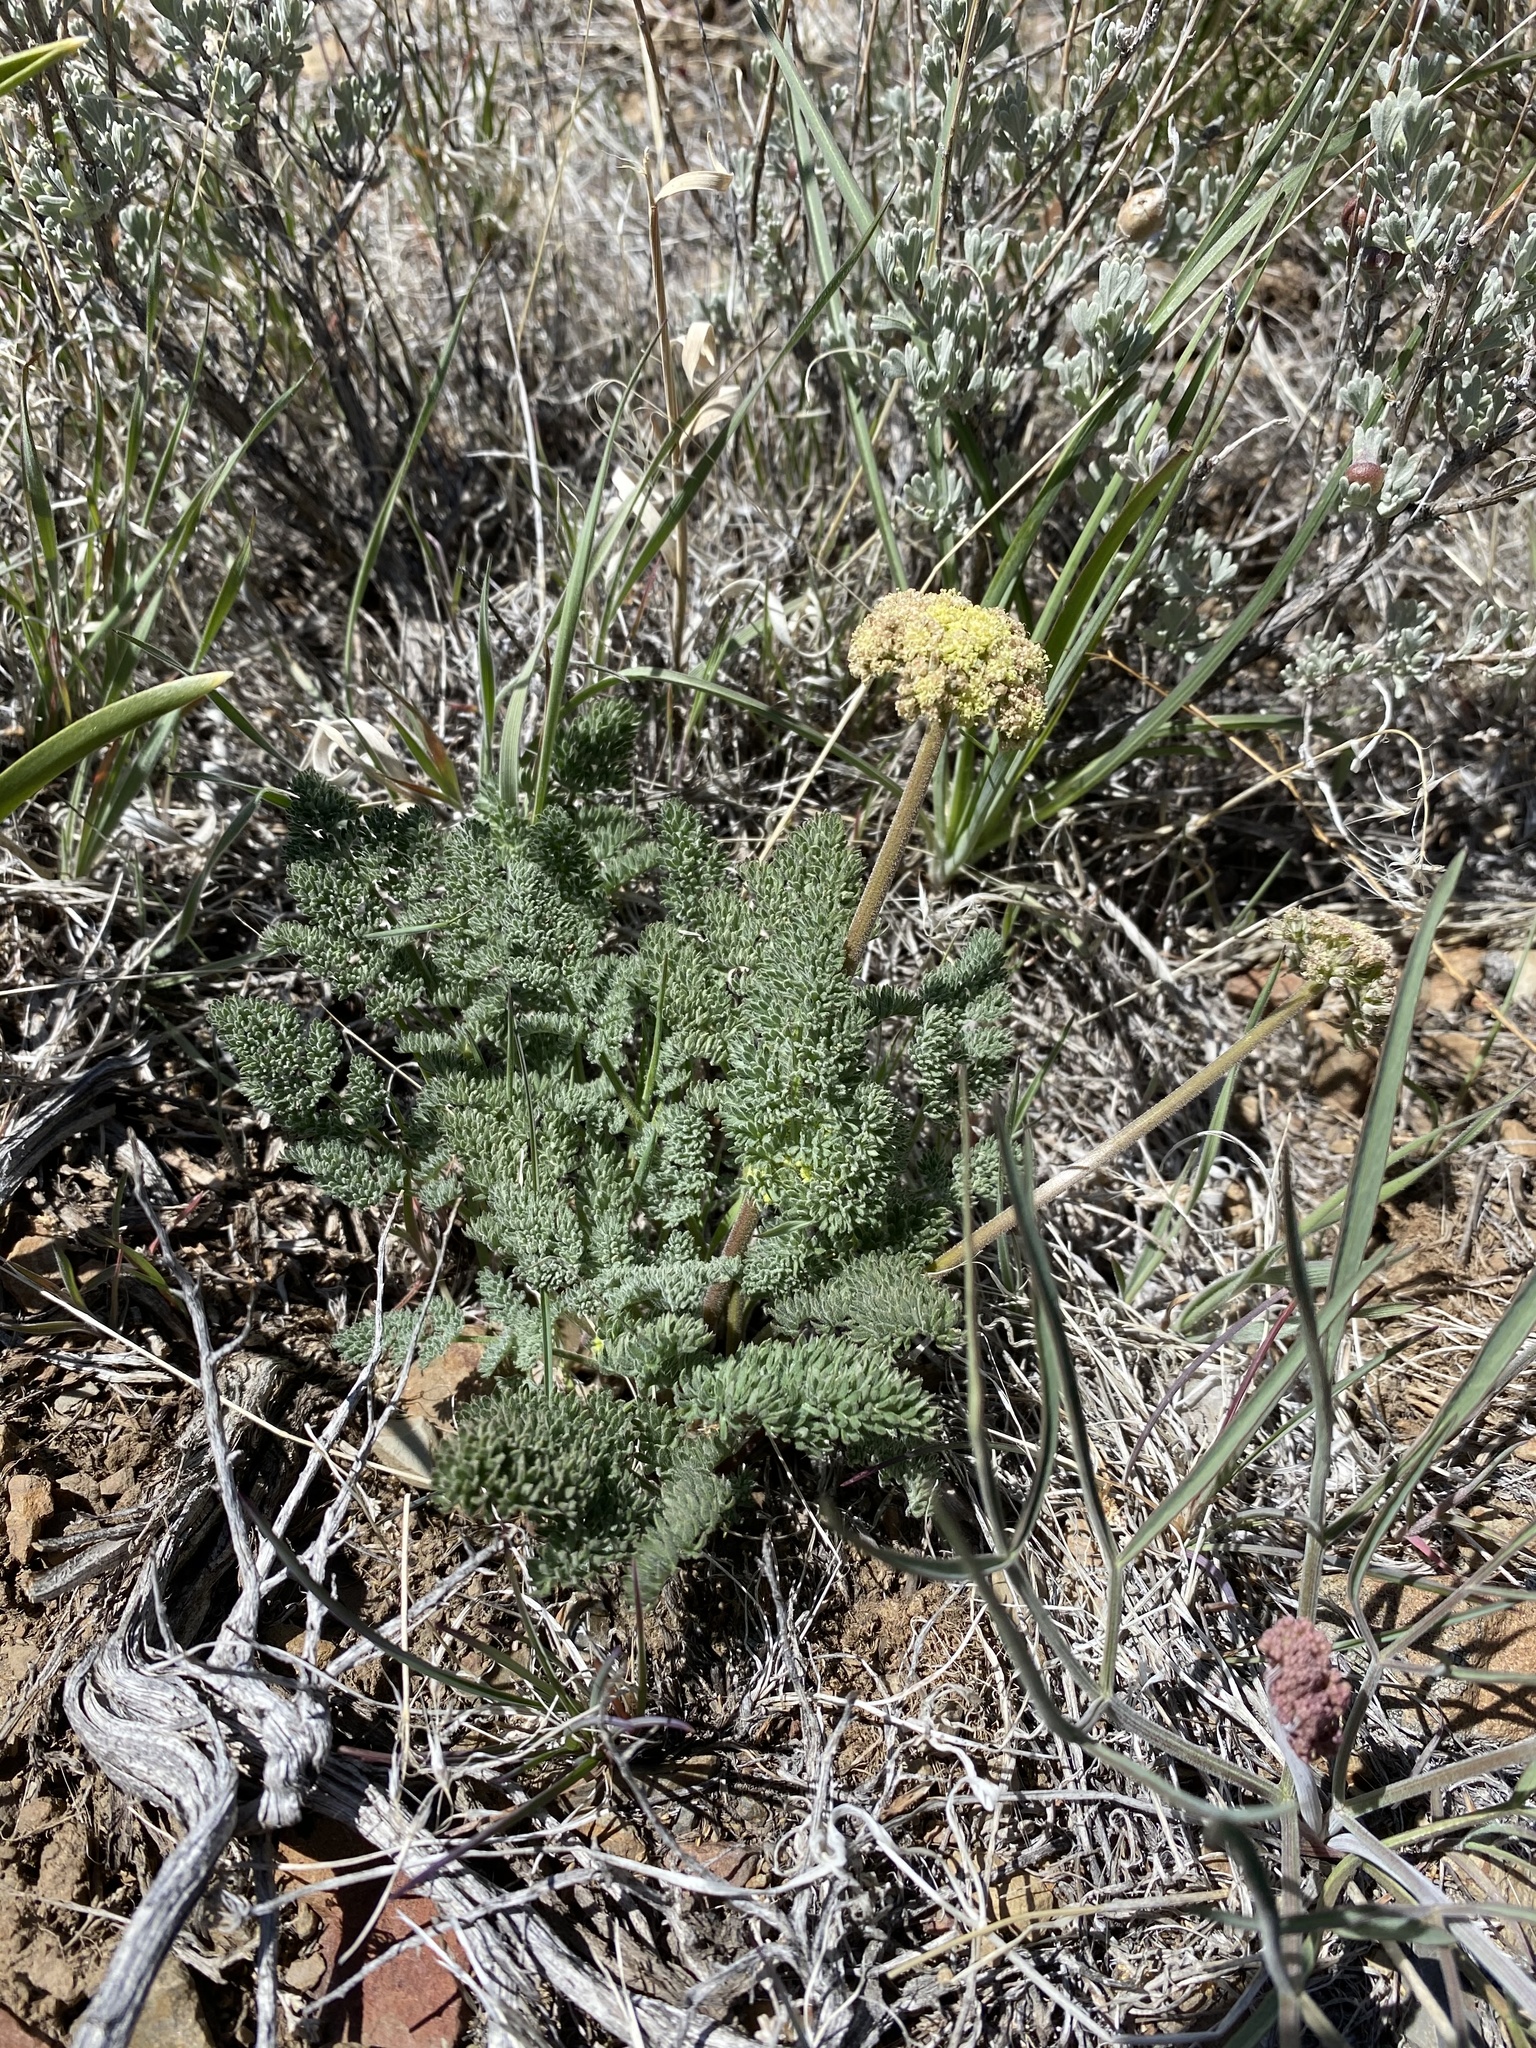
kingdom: Plantae
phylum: Tracheophyta
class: Magnoliopsida
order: Apiales
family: Apiaceae
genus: Lomatium
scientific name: Lomatium foeniculaceum
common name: Desert-parsley
